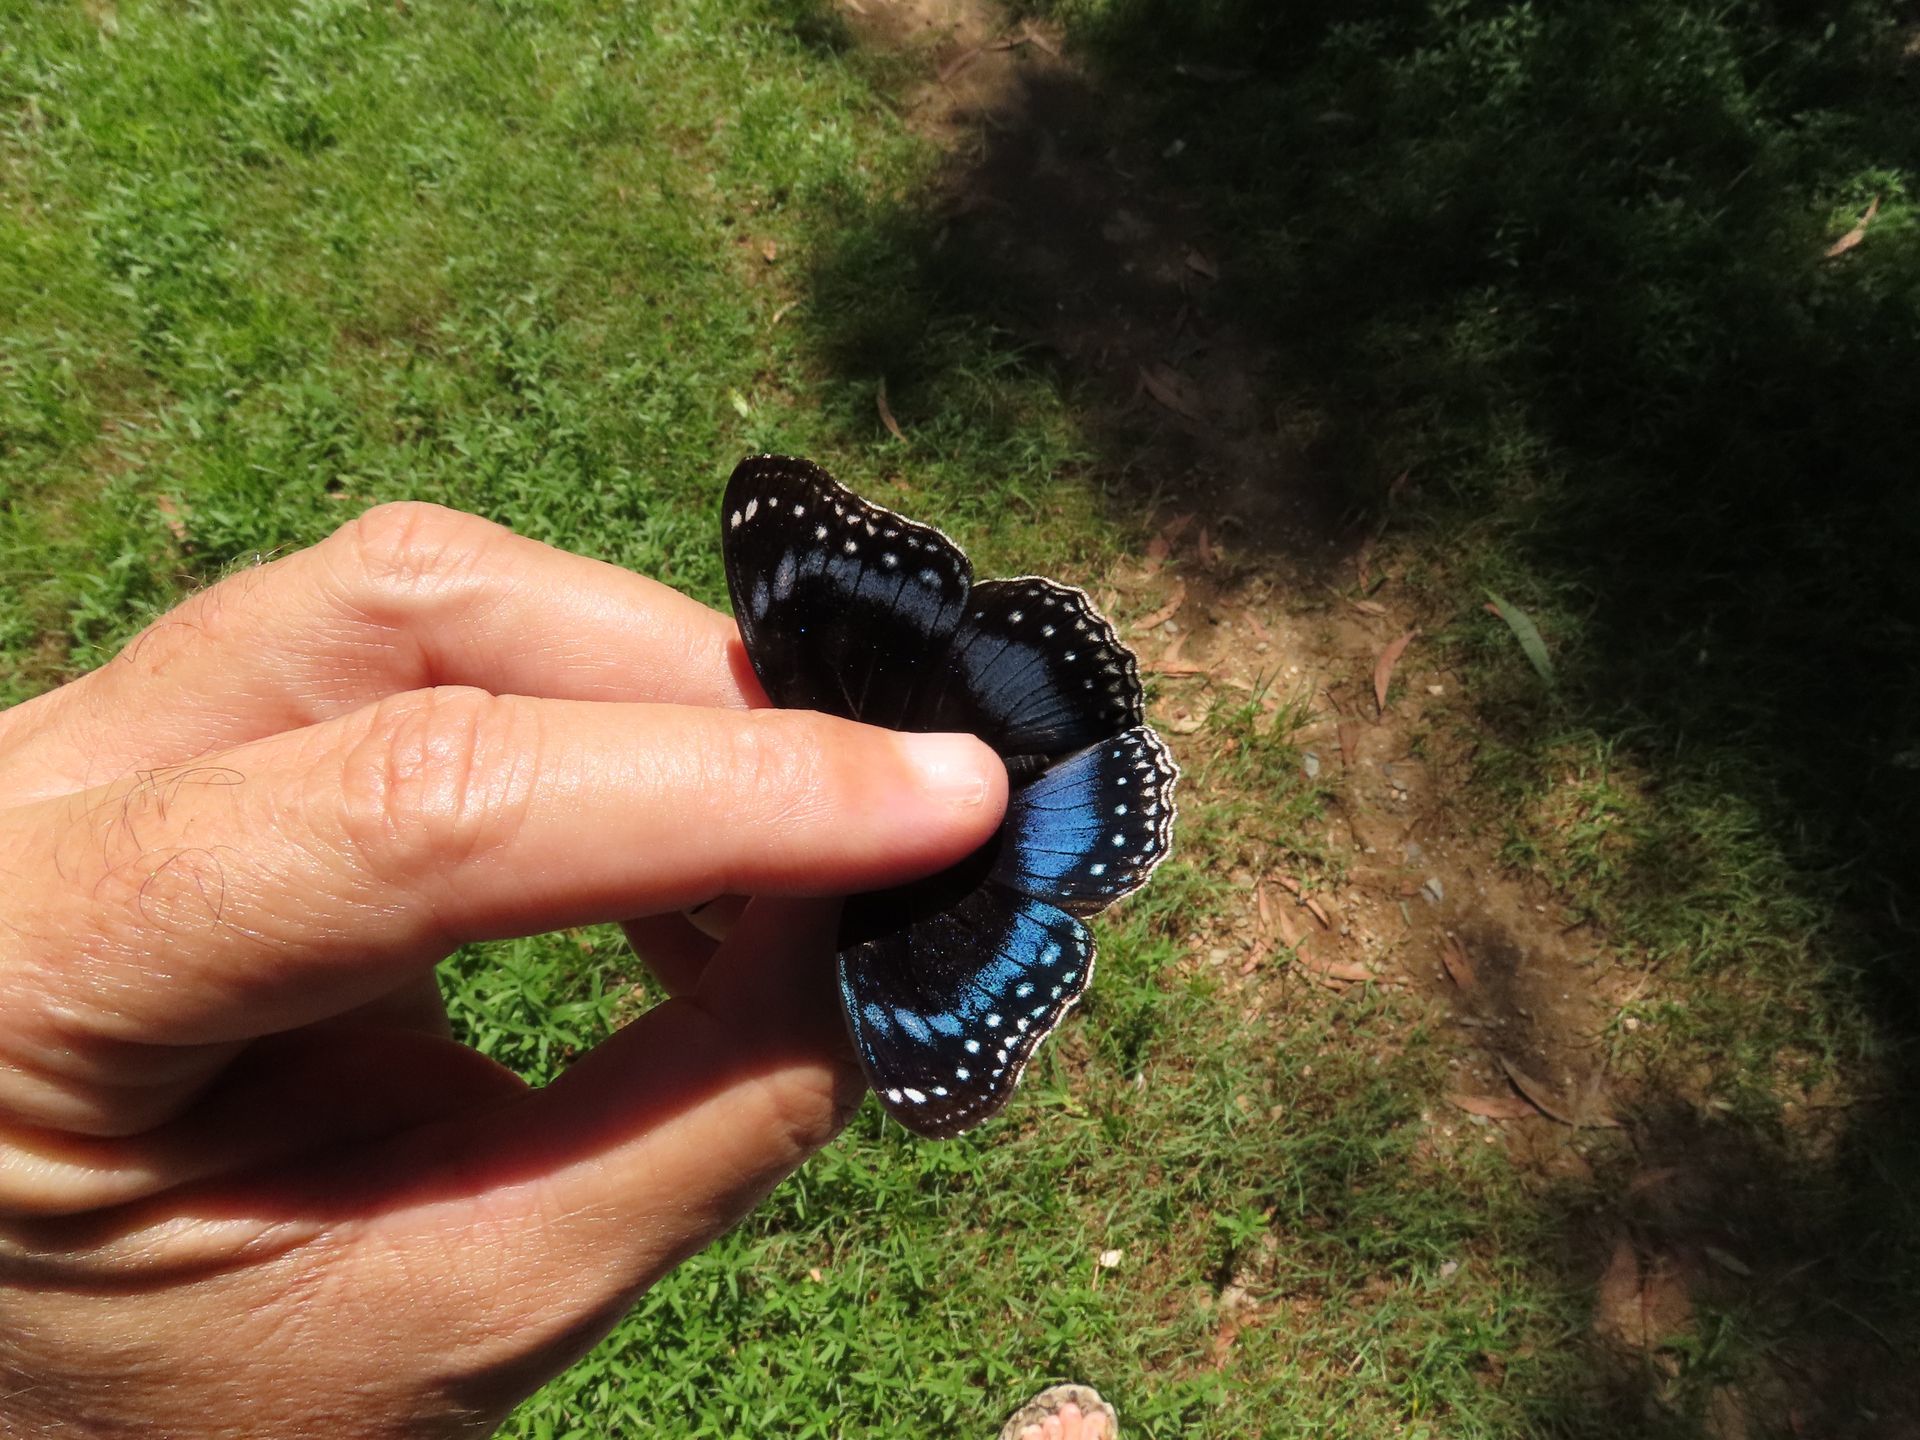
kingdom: Animalia
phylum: Arthropoda
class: Insecta
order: Lepidoptera
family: Nymphalidae
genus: Hypolimnas
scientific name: Hypolimnas alimena
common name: Blue-banded eggfly
